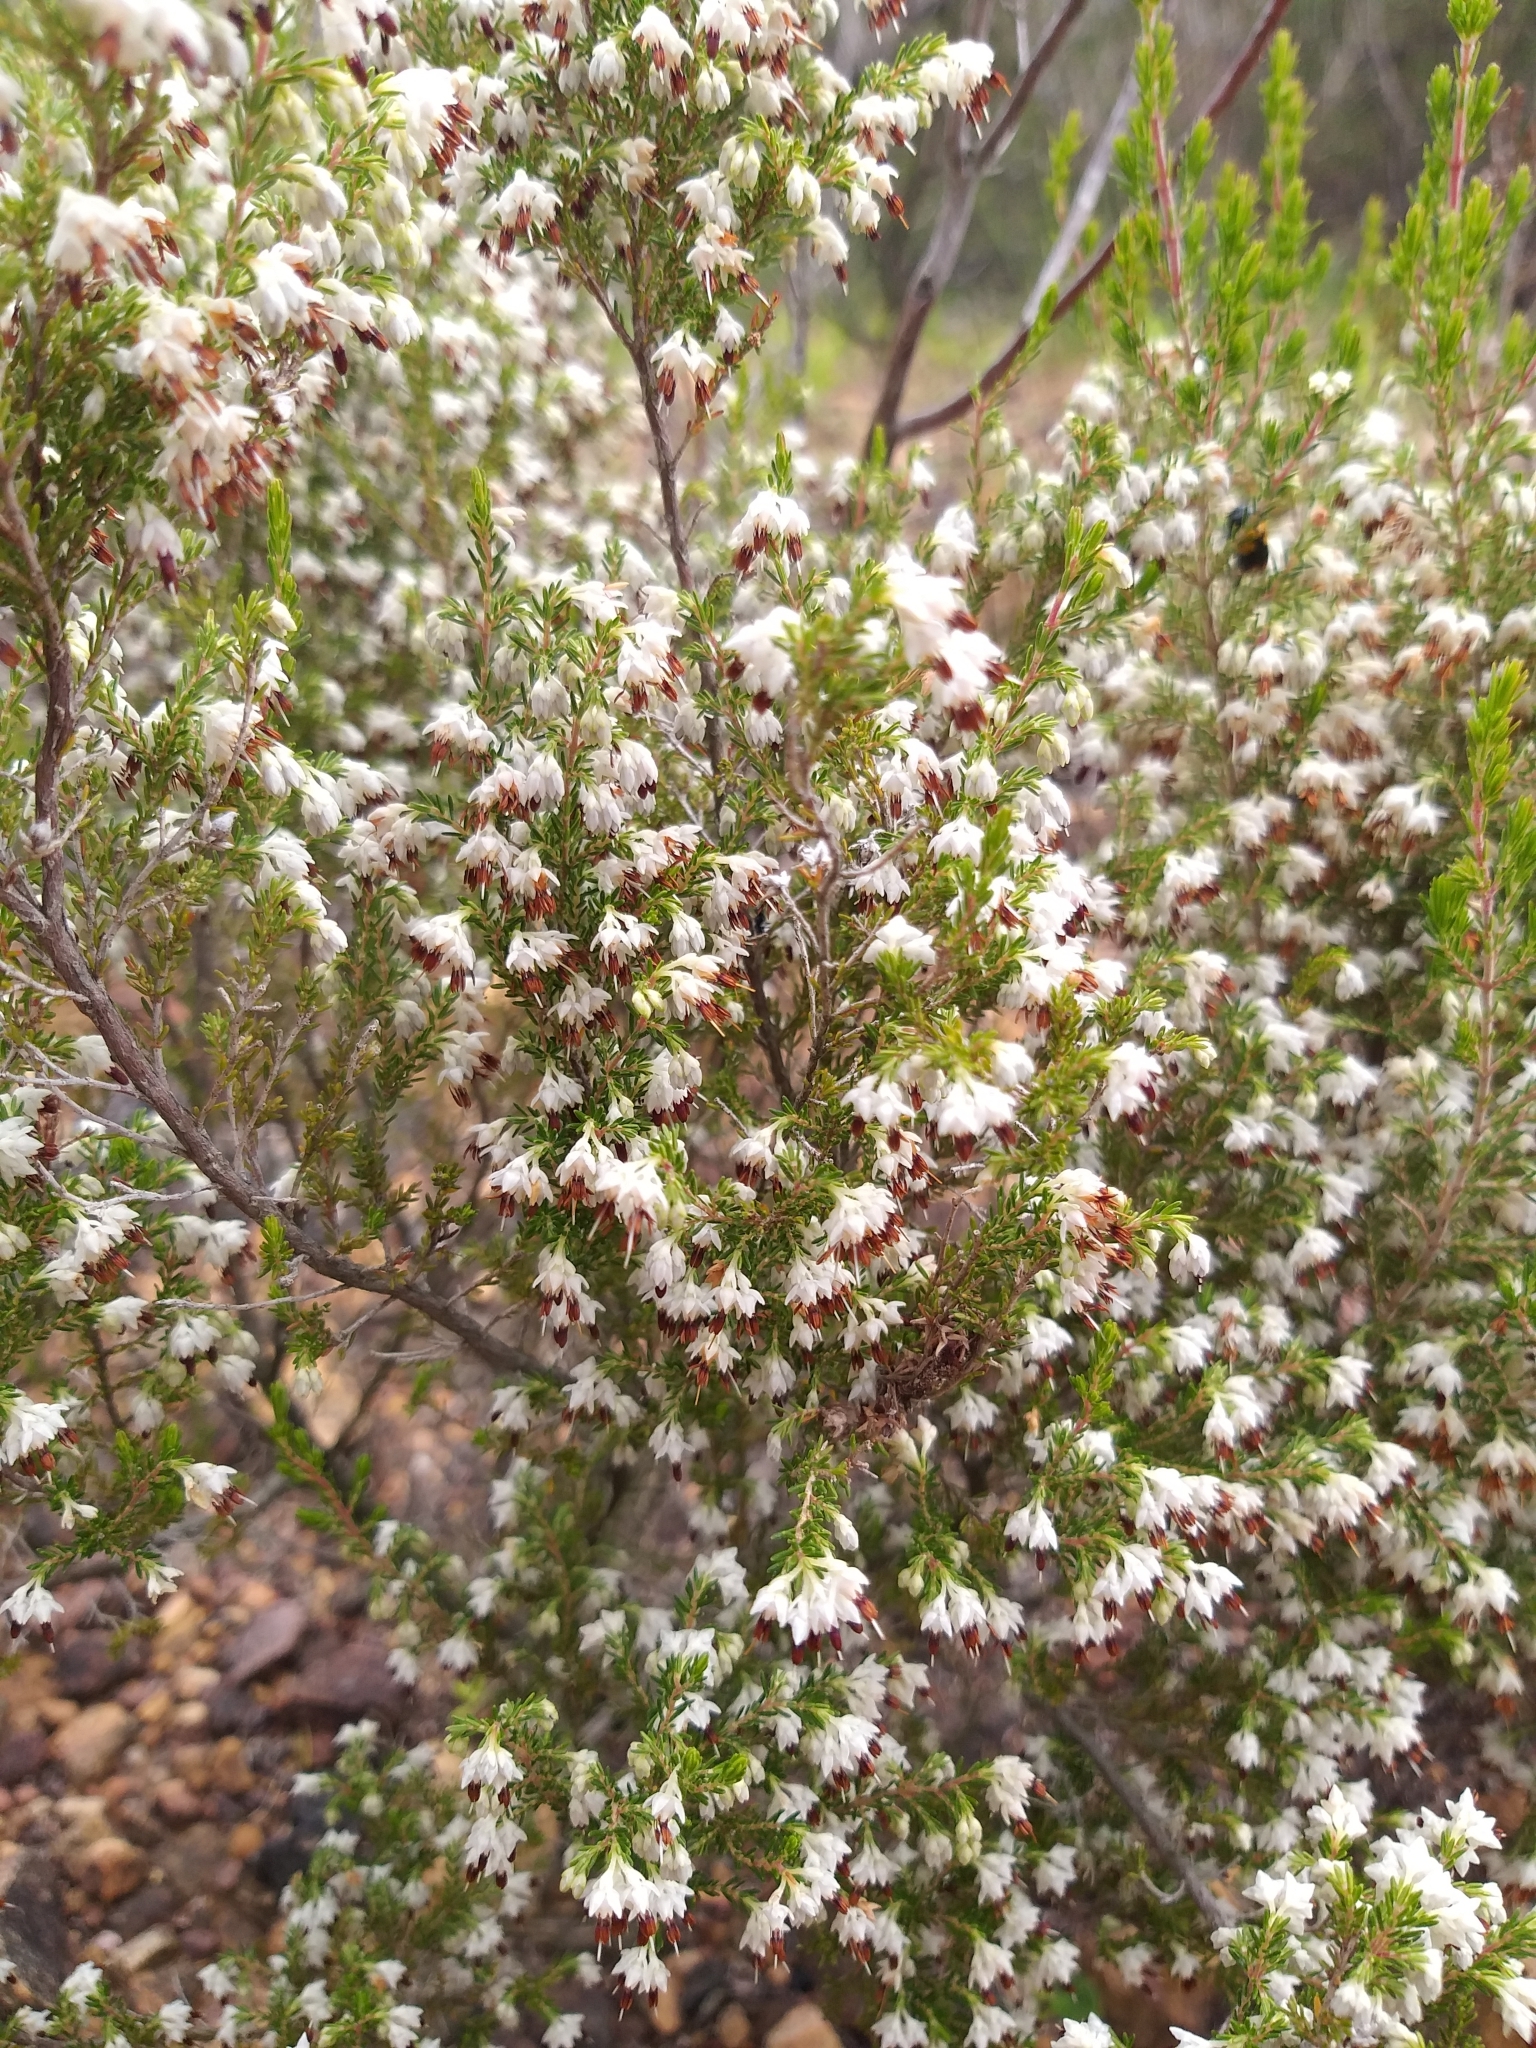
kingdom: Plantae
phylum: Tracheophyta
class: Magnoliopsida
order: Ericales
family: Ericaceae
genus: Erica
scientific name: Erica imbricata
